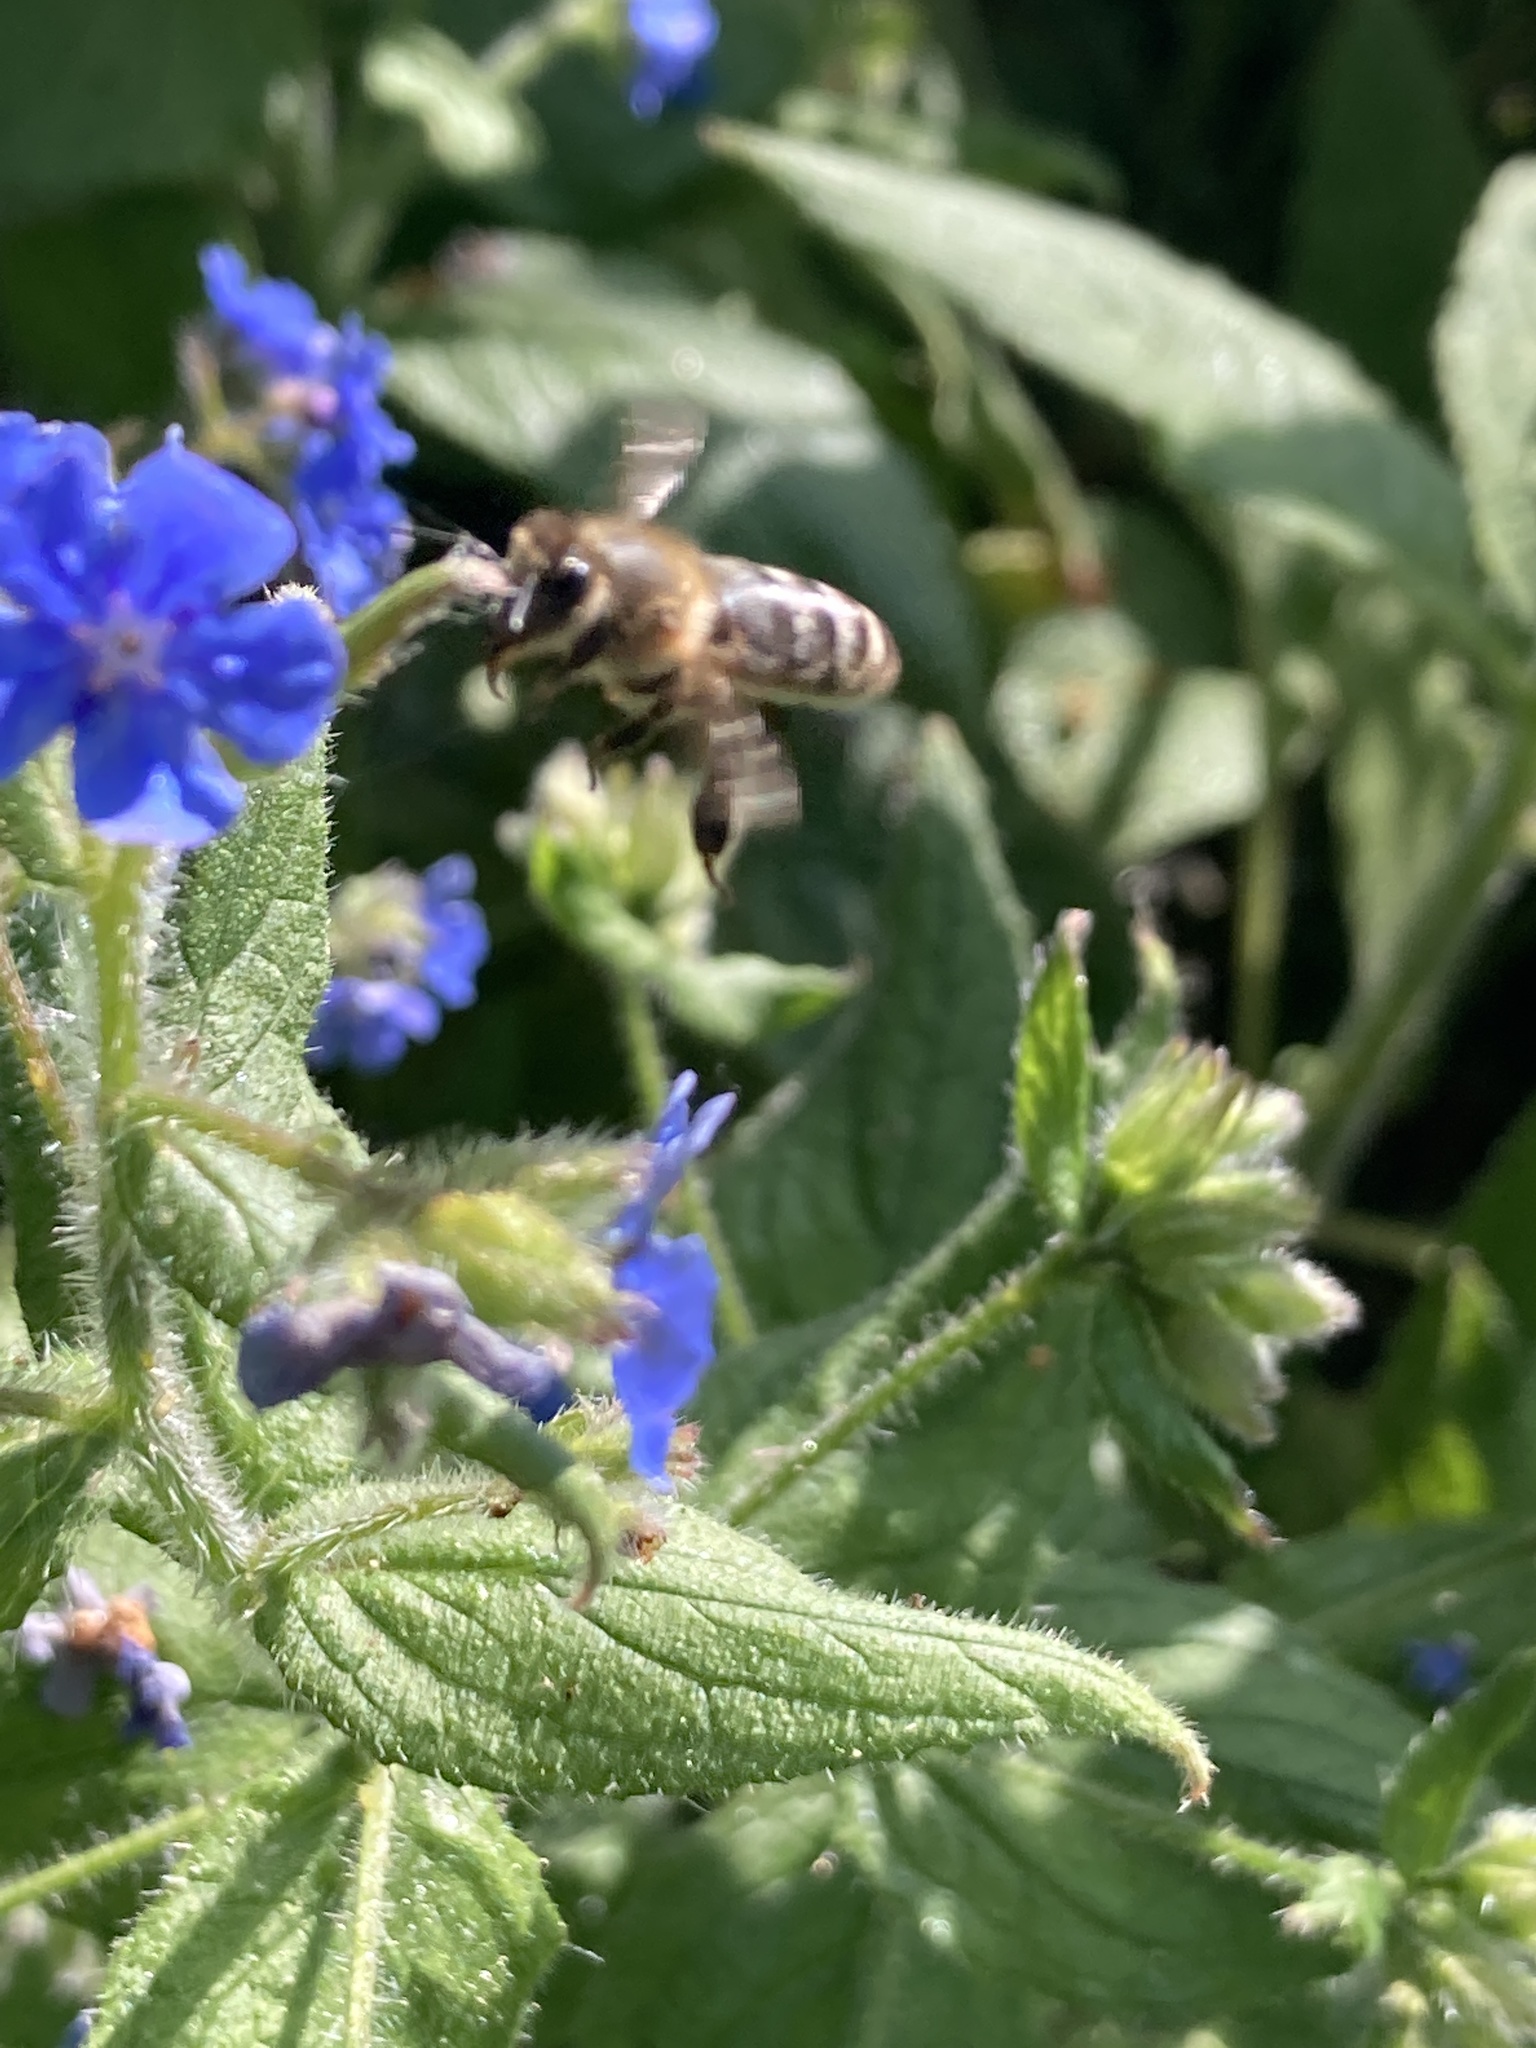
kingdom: Animalia
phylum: Arthropoda
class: Insecta
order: Hymenoptera
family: Apidae
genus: Apis
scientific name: Apis mellifera
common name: Honey bee
